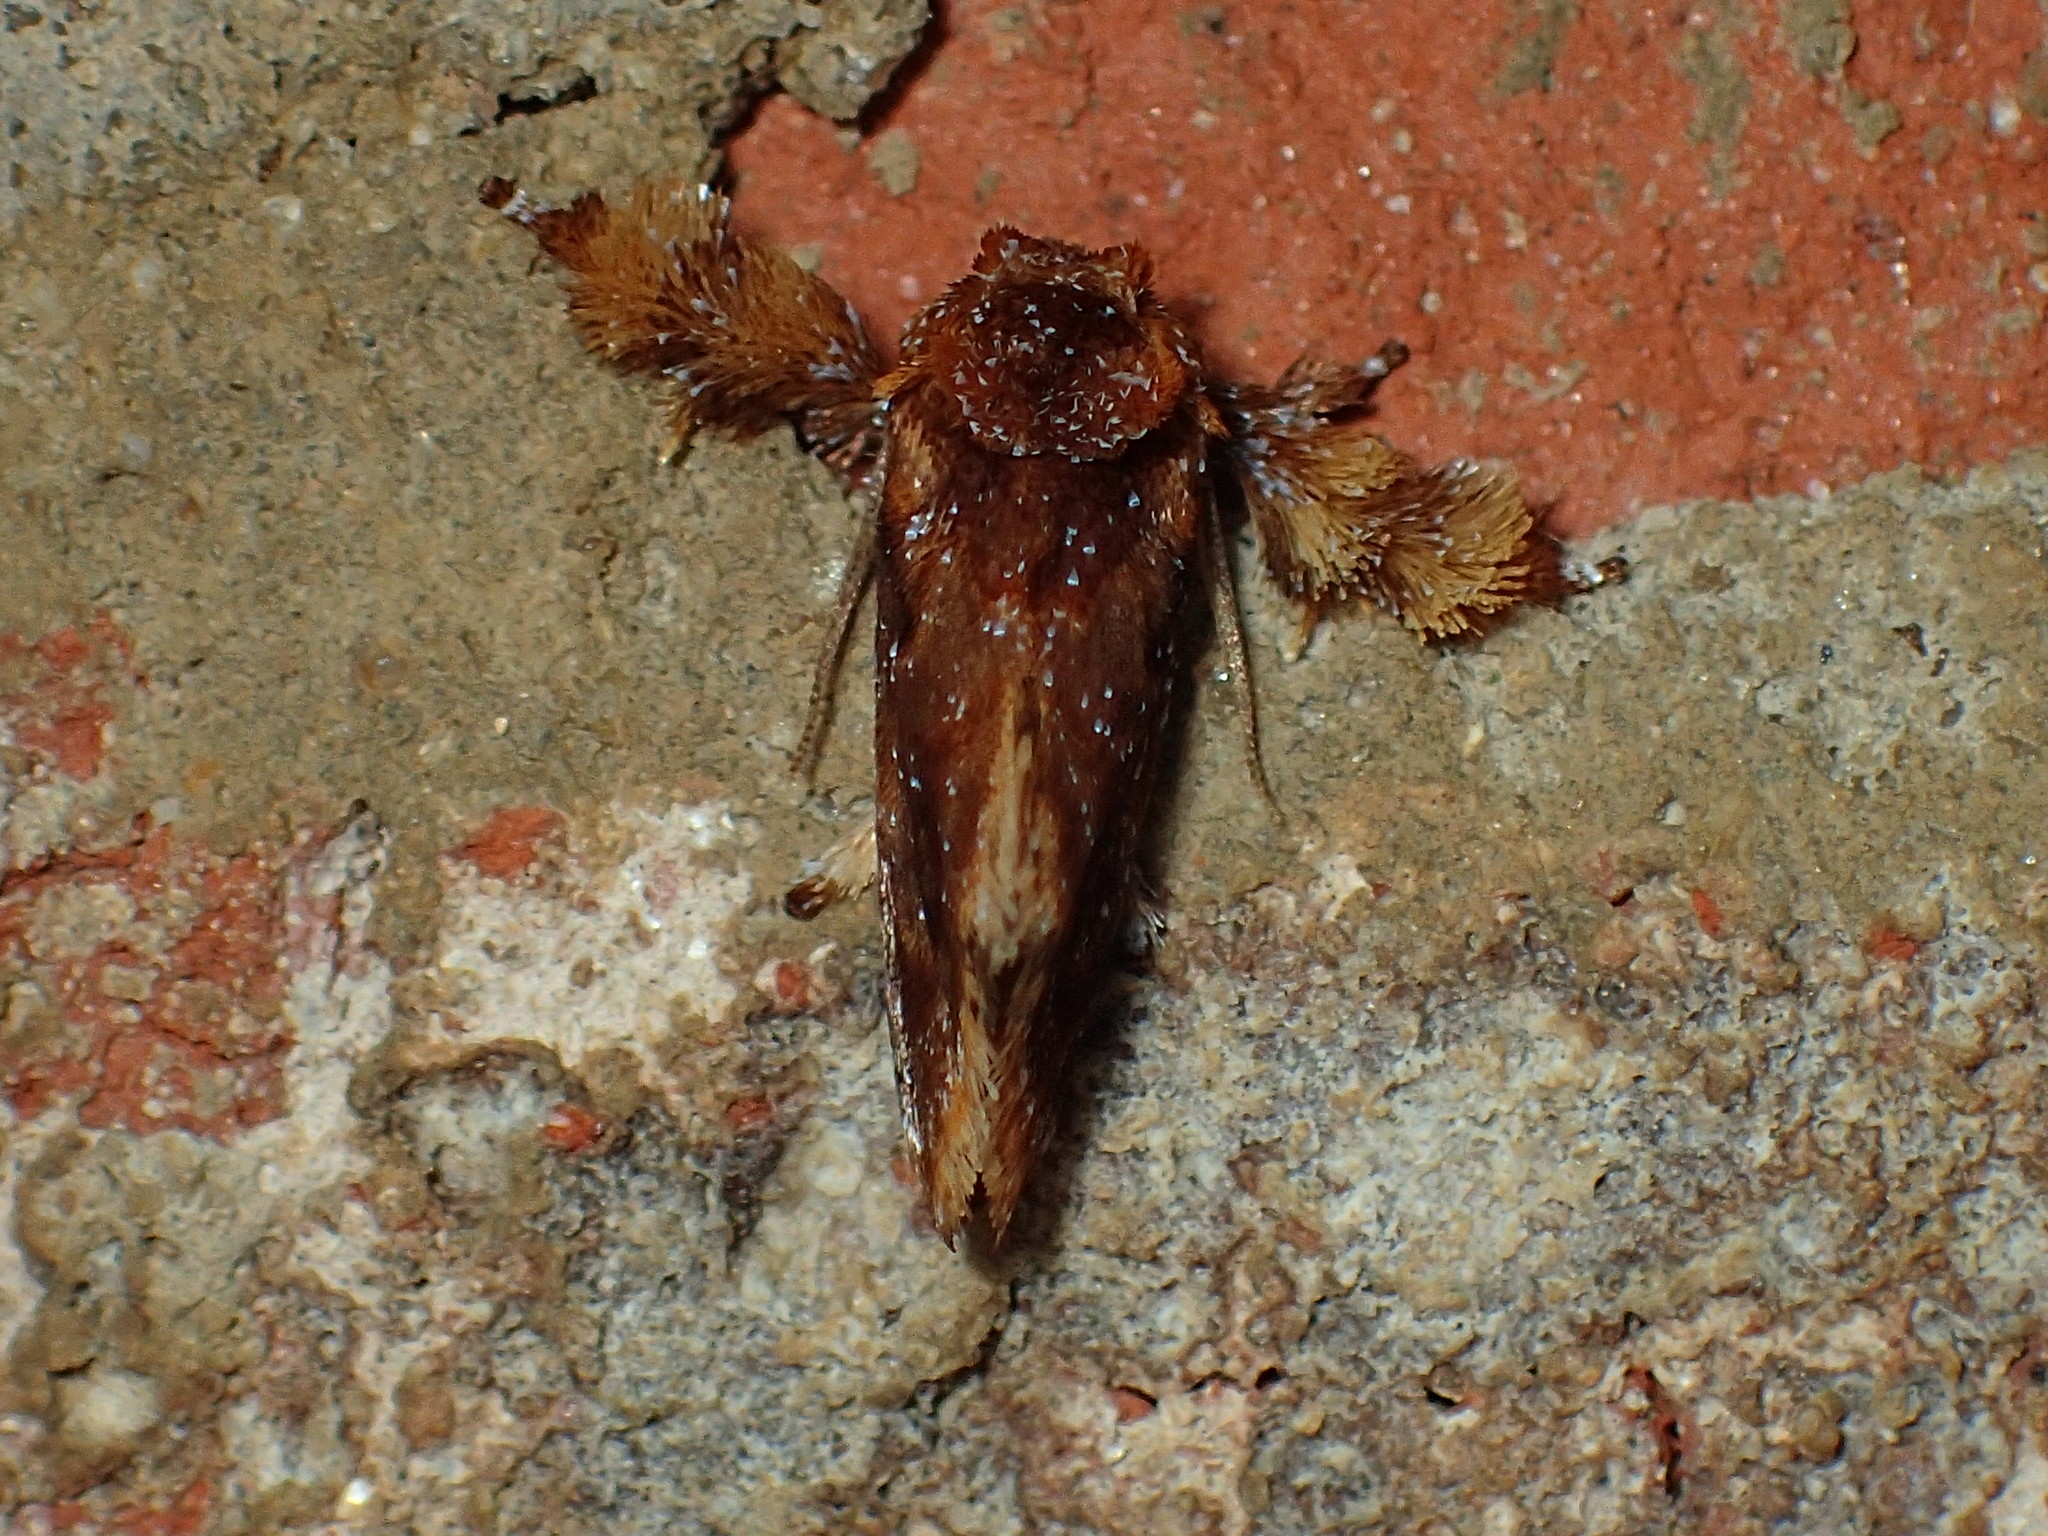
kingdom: Animalia
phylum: Arthropoda
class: Insecta
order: Lepidoptera
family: Limacodidae
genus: Isochaetes
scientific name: Isochaetes beutenmuelleri
